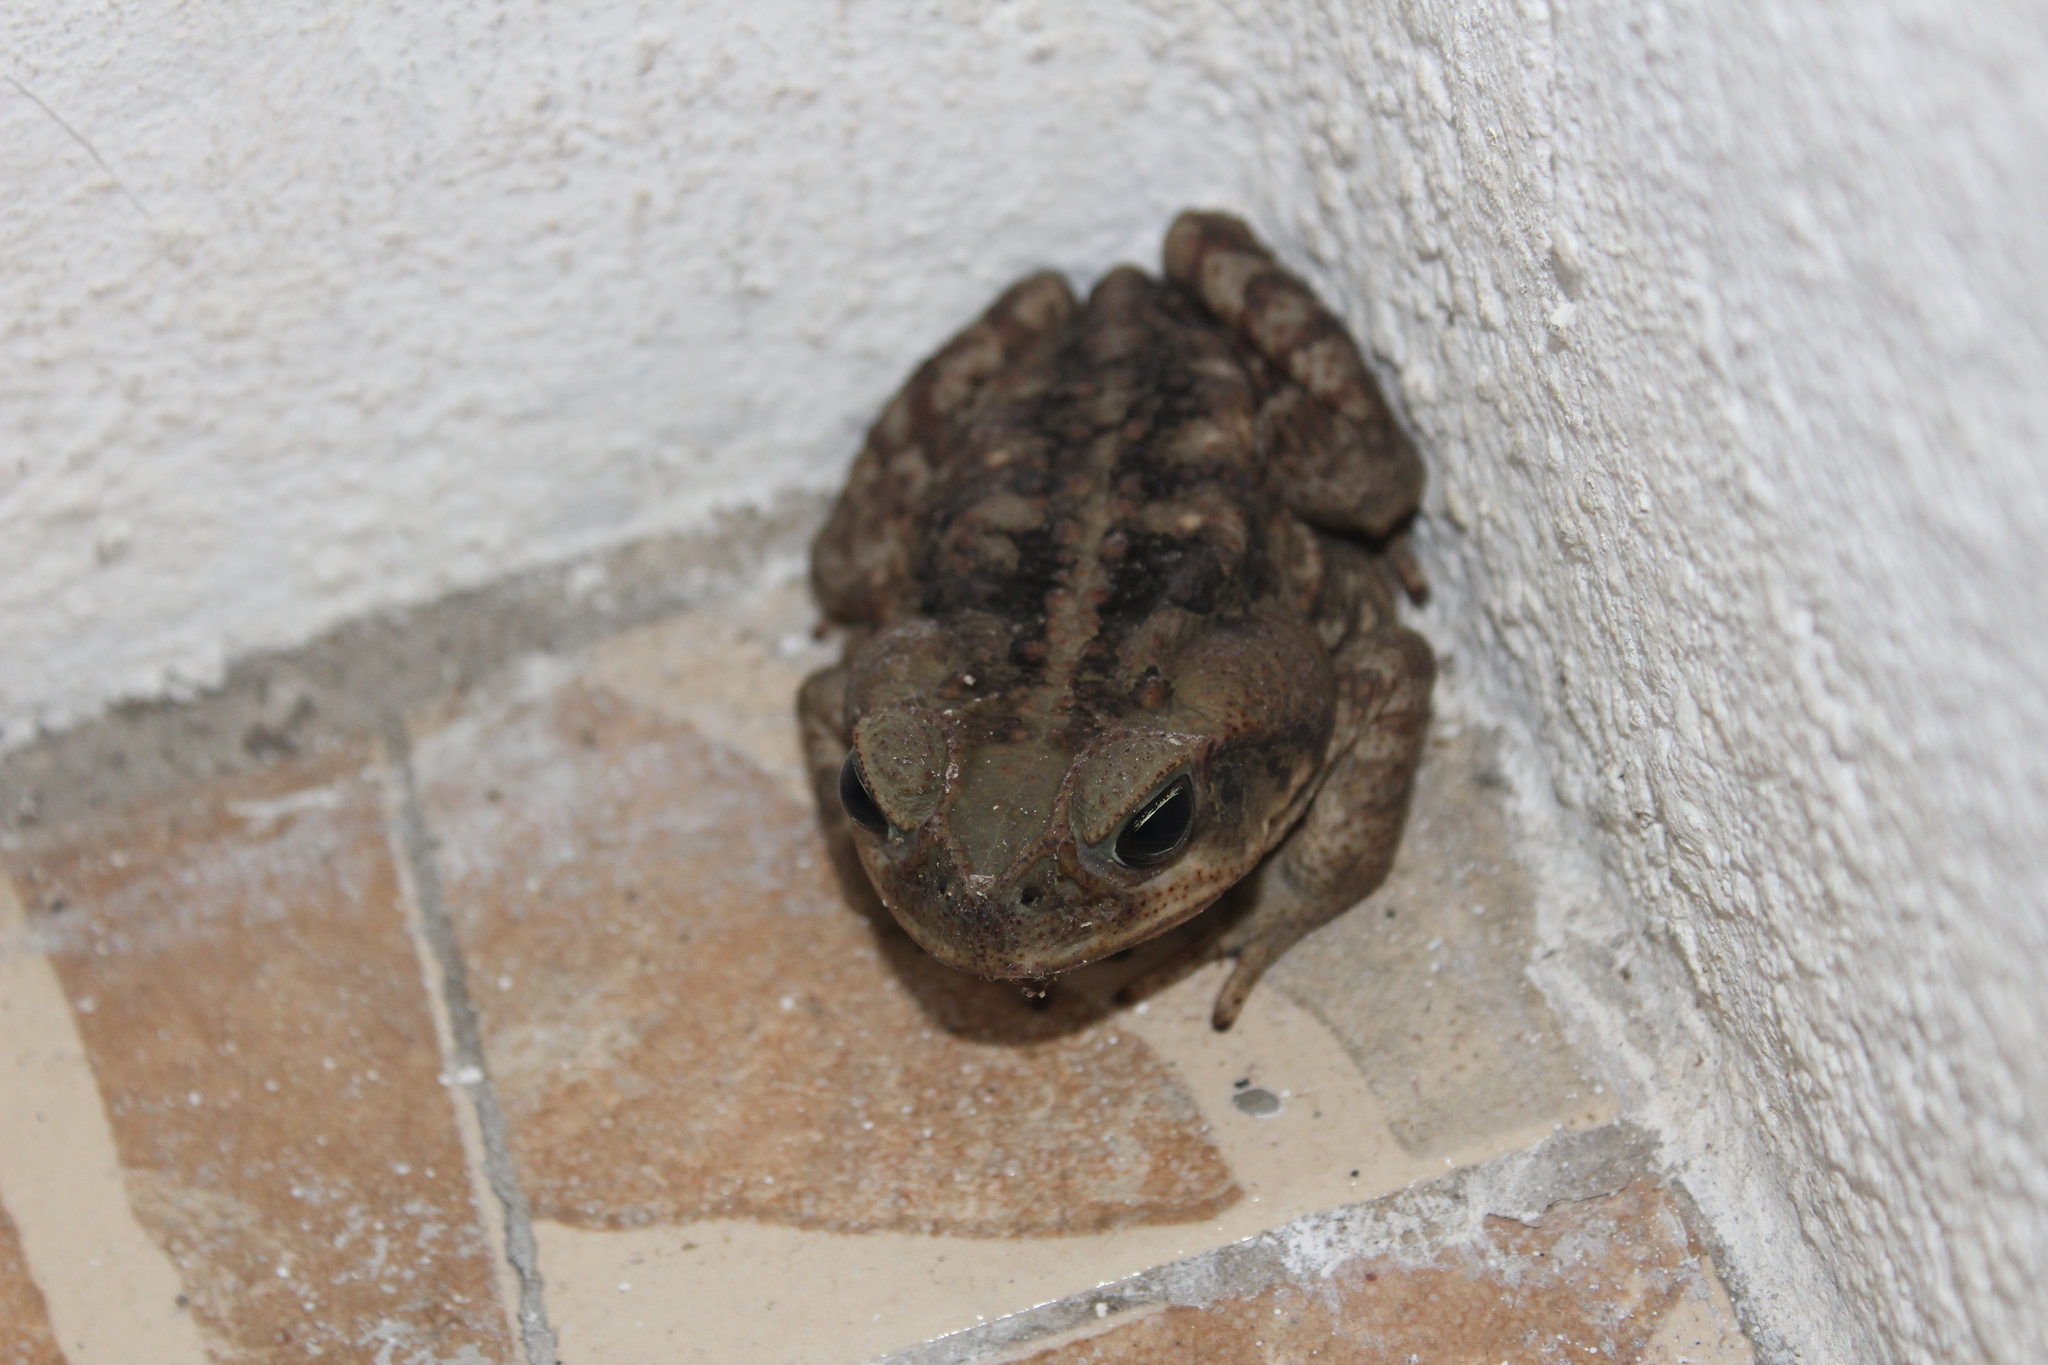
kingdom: Animalia
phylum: Chordata
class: Amphibia
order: Anura
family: Bufonidae
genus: Rhinella
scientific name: Rhinella horribilis
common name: Mesoamerican cane toad
